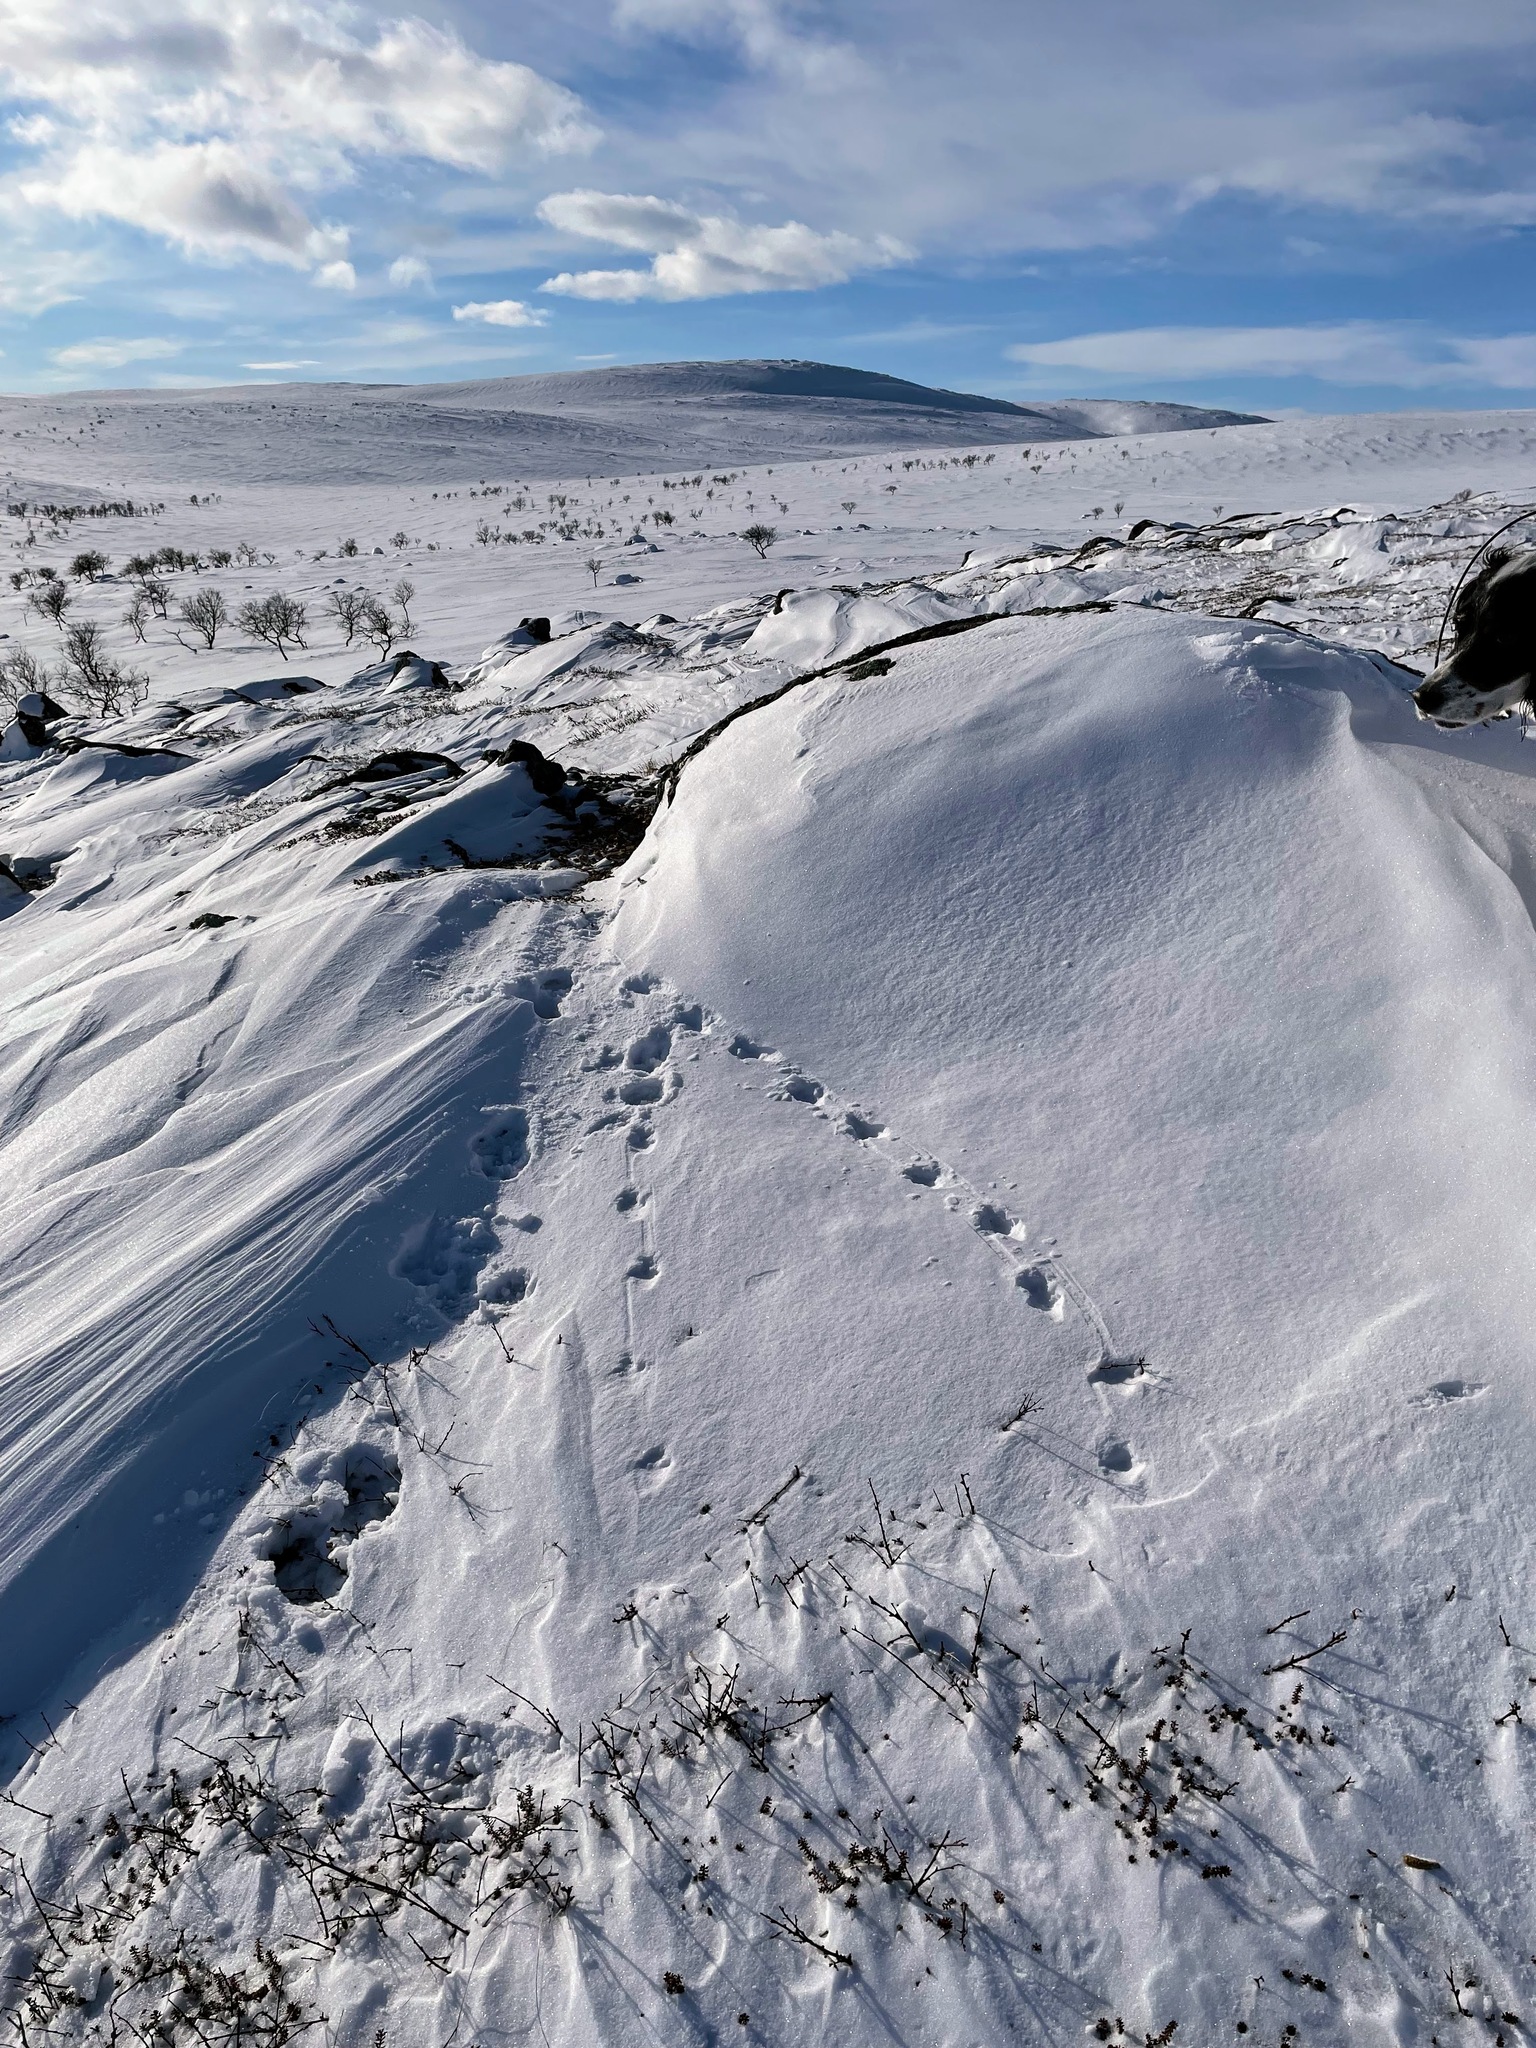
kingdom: Animalia
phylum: Chordata
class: Aves
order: Galliformes
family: Phasianidae
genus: Lagopus
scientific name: Lagopus lagopus
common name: Willow ptarmigan
